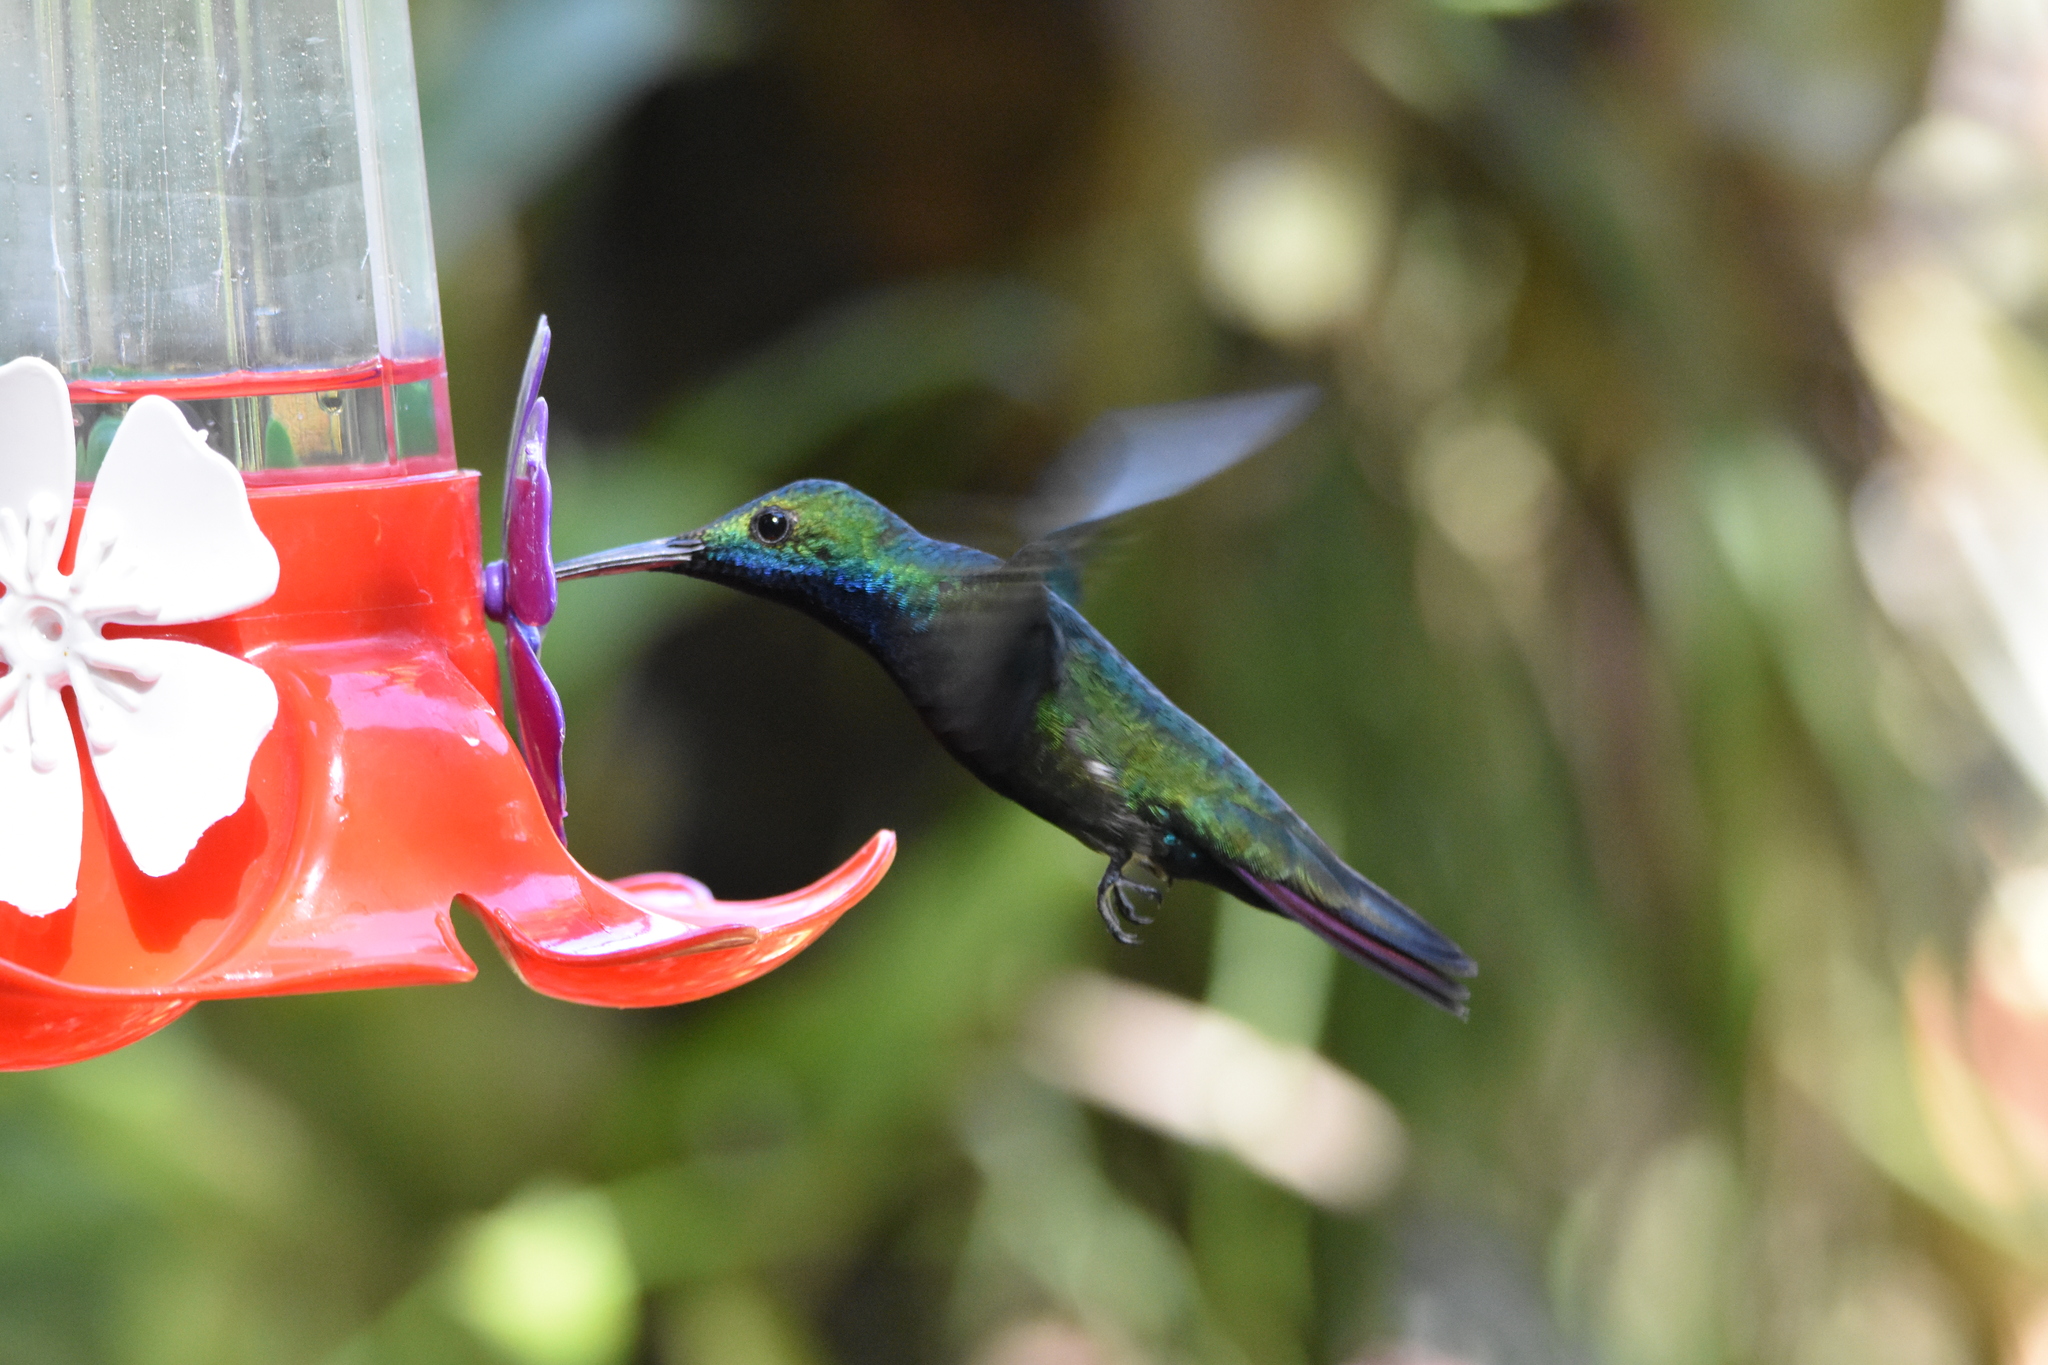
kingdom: Animalia
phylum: Chordata
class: Aves
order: Apodiformes
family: Trochilidae
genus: Anthracothorax
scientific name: Anthracothorax nigricollis
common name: Black-throated mango
